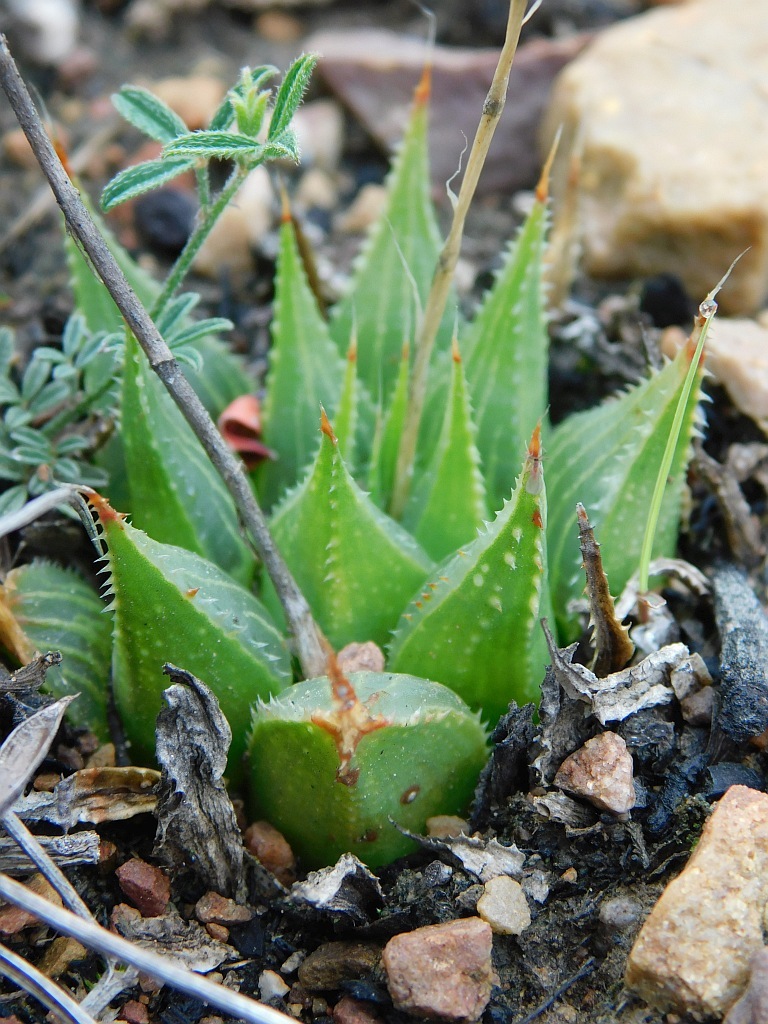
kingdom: Plantae
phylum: Tracheophyta
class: Liliopsida
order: Asparagales
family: Asphodelaceae
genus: Haworthia
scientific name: Haworthia mirabilis
